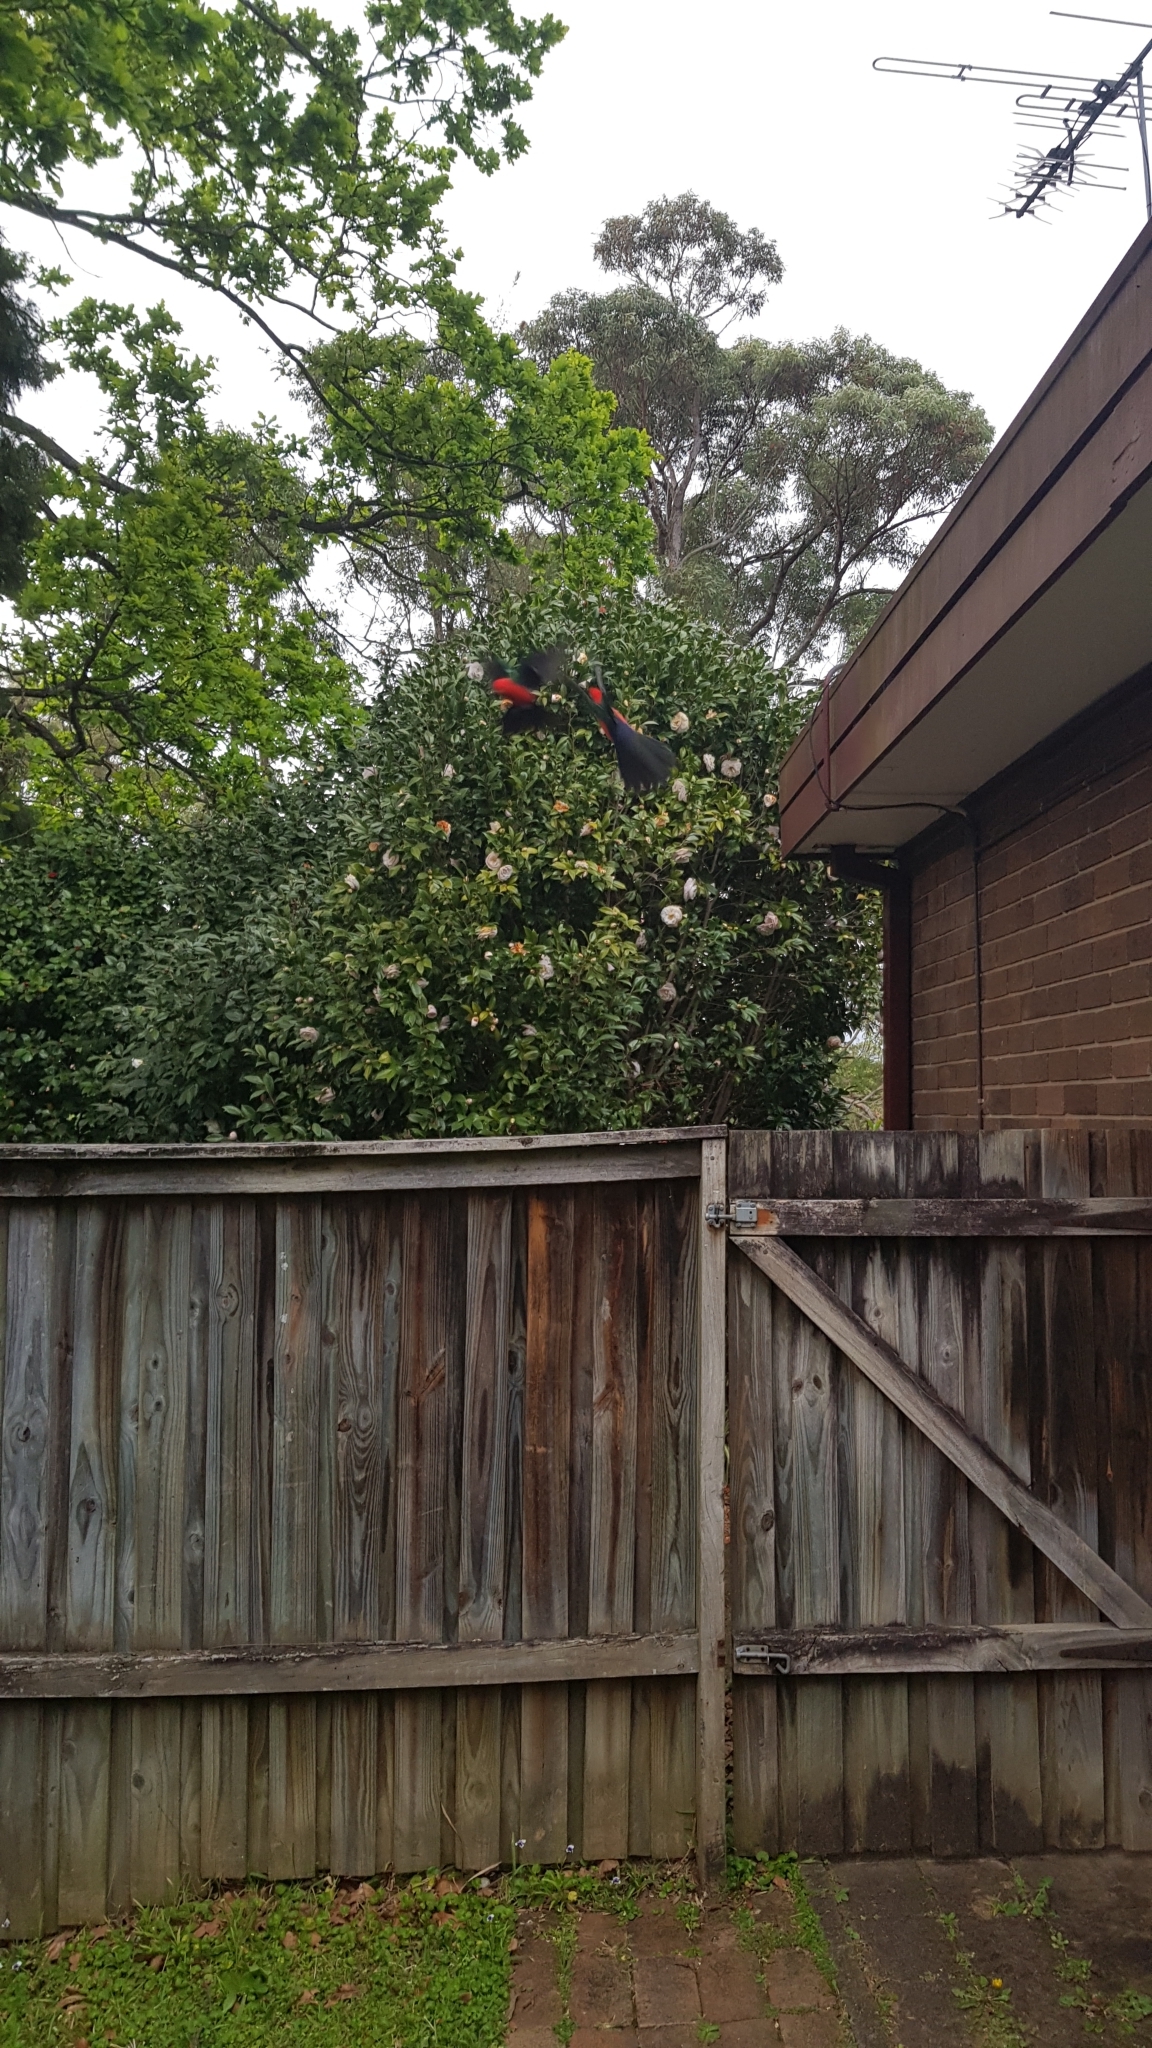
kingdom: Animalia
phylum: Chordata
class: Aves
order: Psittaciformes
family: Psittacidae
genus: Alisterus
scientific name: Alisterus scapularis
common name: Australian king parrot
